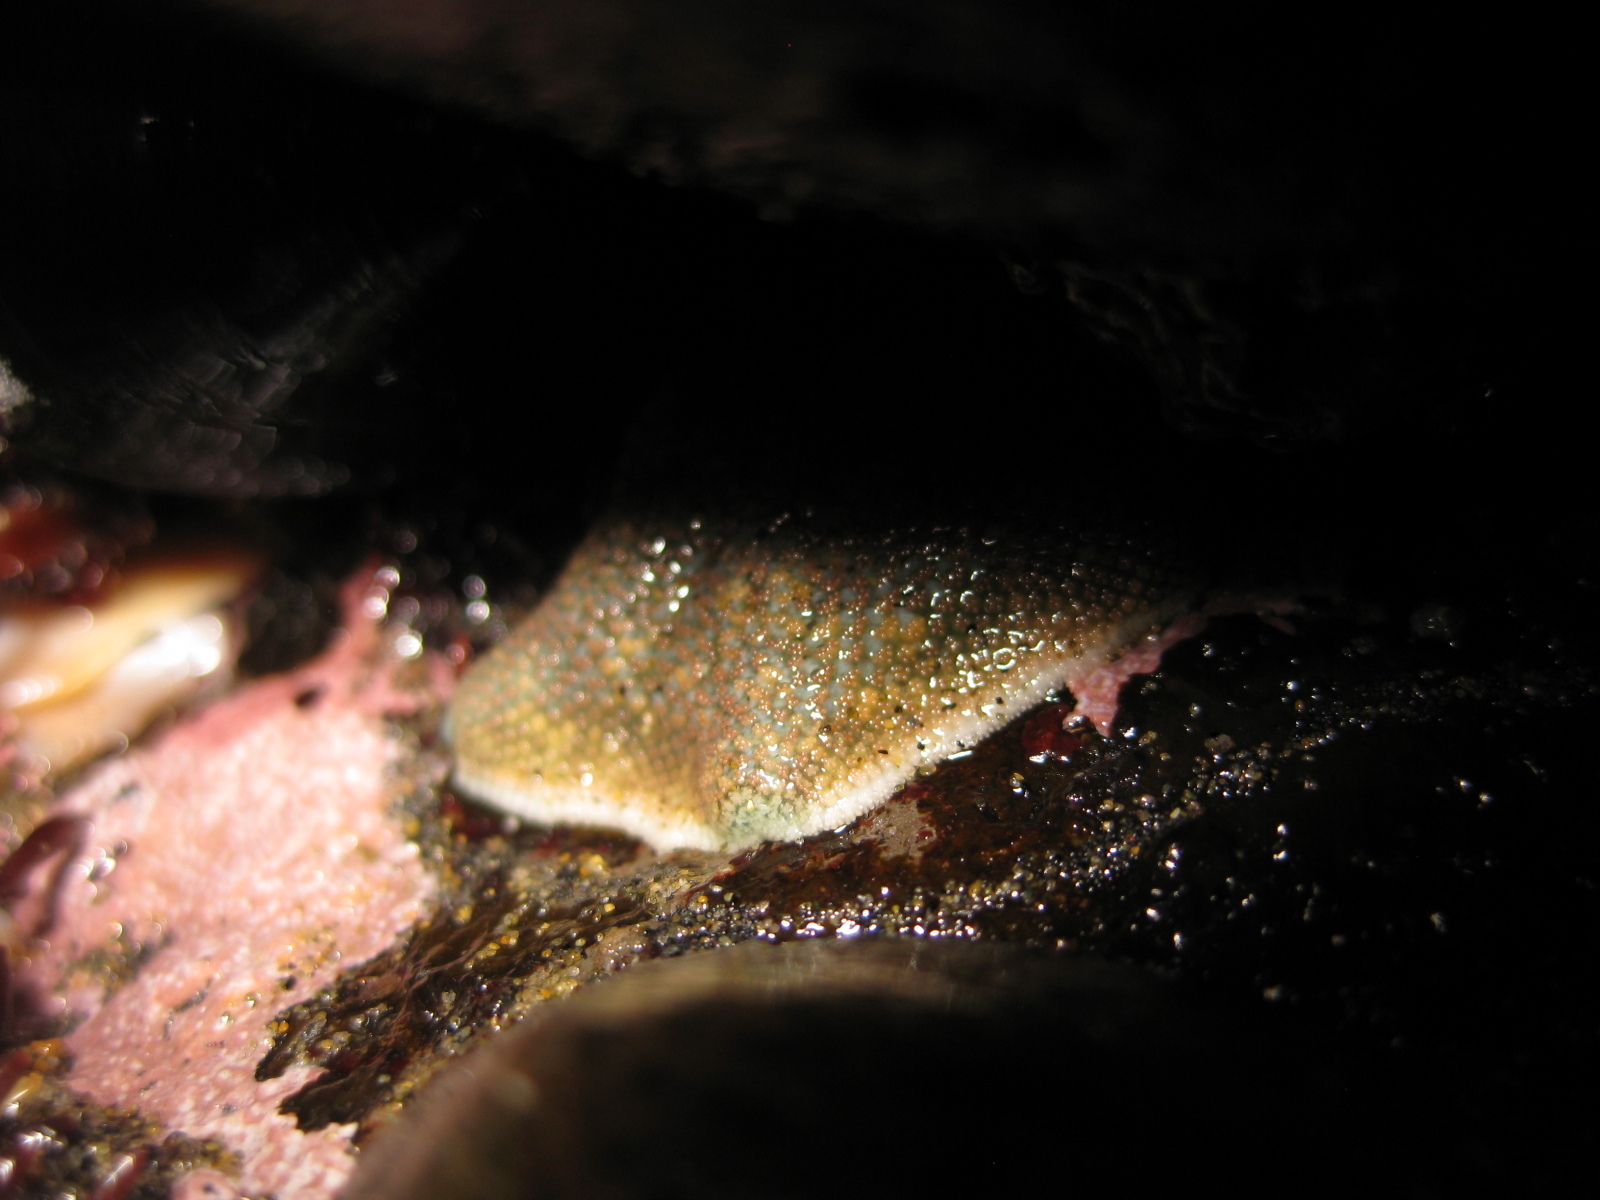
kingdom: Animalia
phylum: Echinodermata
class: Asteroidea
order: Valvatida
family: Asterinidae
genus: Patiriella
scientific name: Patiriella regularis
